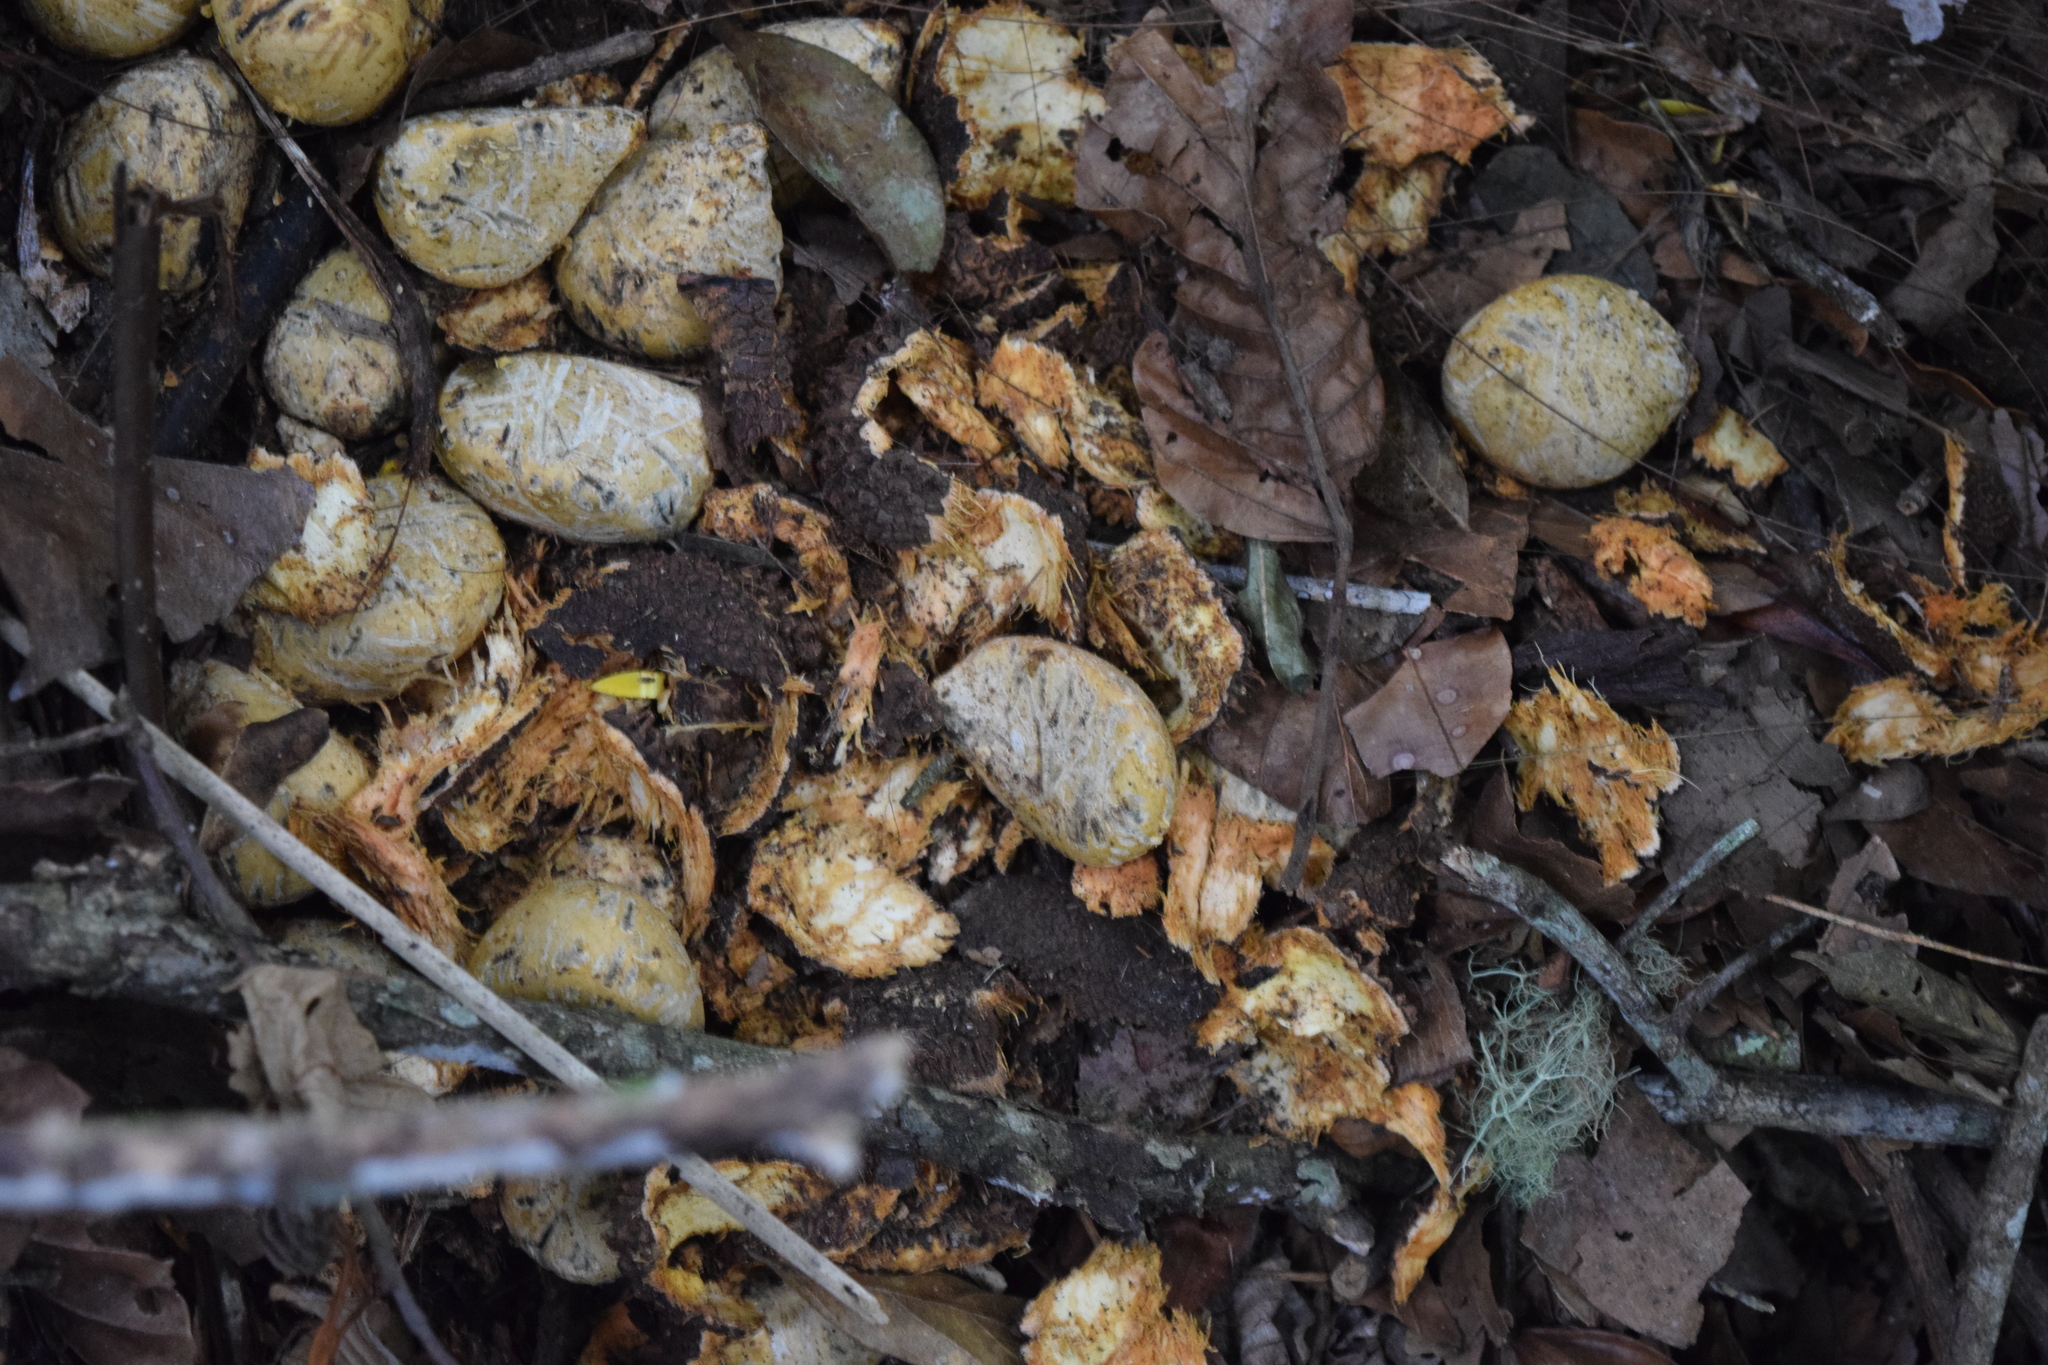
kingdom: Plantae
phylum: Tracheophyta
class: Liliopsida
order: Arecales
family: Arecaceae
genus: Aphandra
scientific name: Aphandra natalia
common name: Fiber palm
